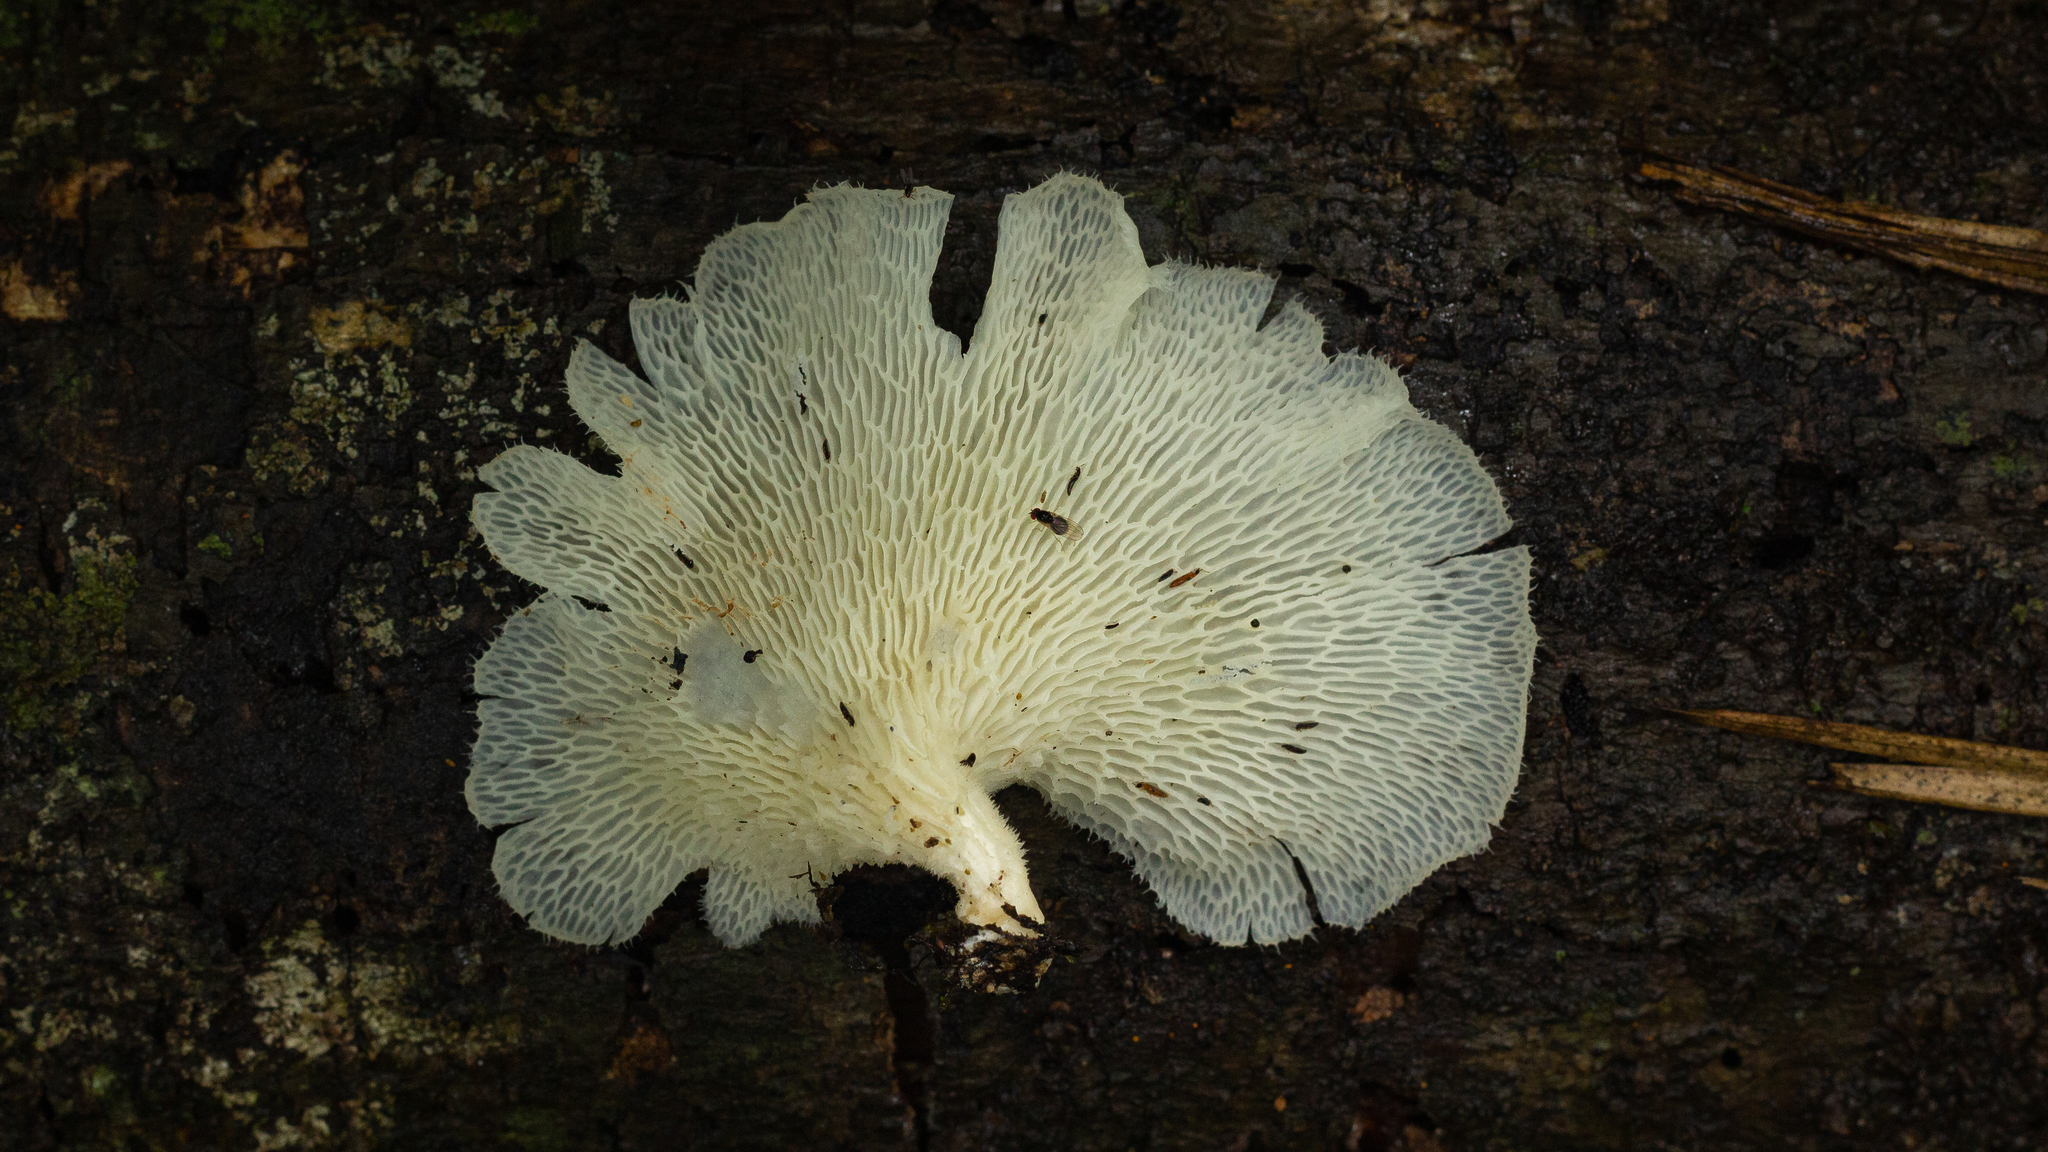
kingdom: Fungi
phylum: Basidiomycota
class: Agaricomycetes
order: Polyporales
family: Polyporaceae
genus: Favolus
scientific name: Favolus tenuiculus
